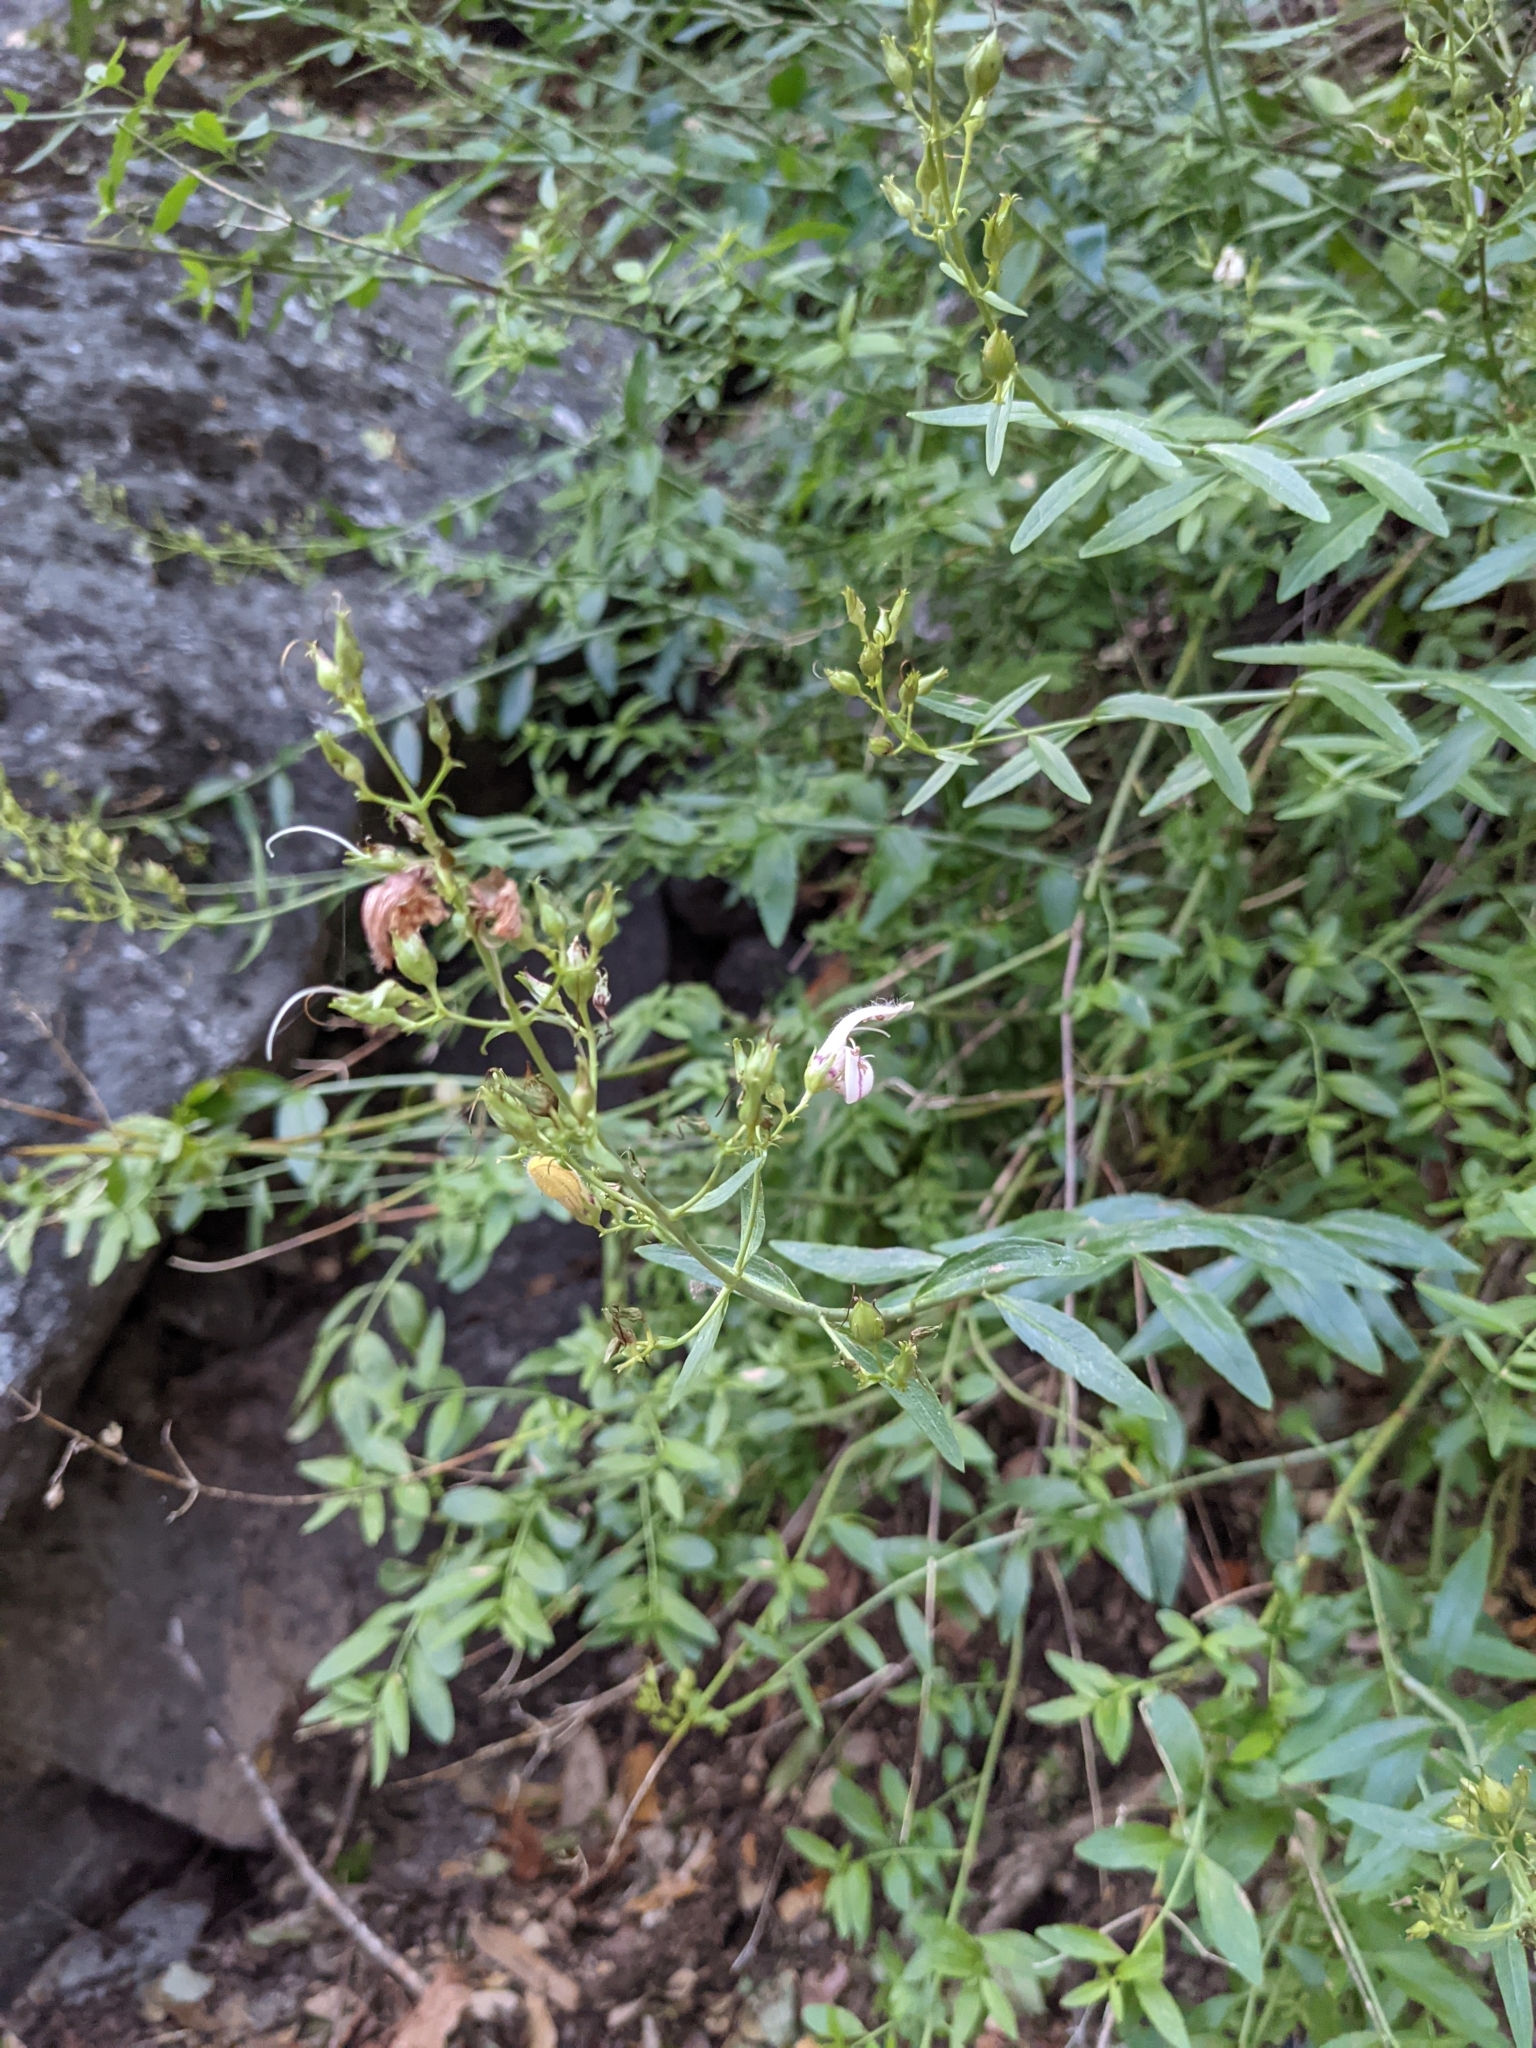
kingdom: Plantae
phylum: Tracheophyta
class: Magnoliopsida
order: Lamiales
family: Plantaginaceae
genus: Keckiella
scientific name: Keckiella breviflora
